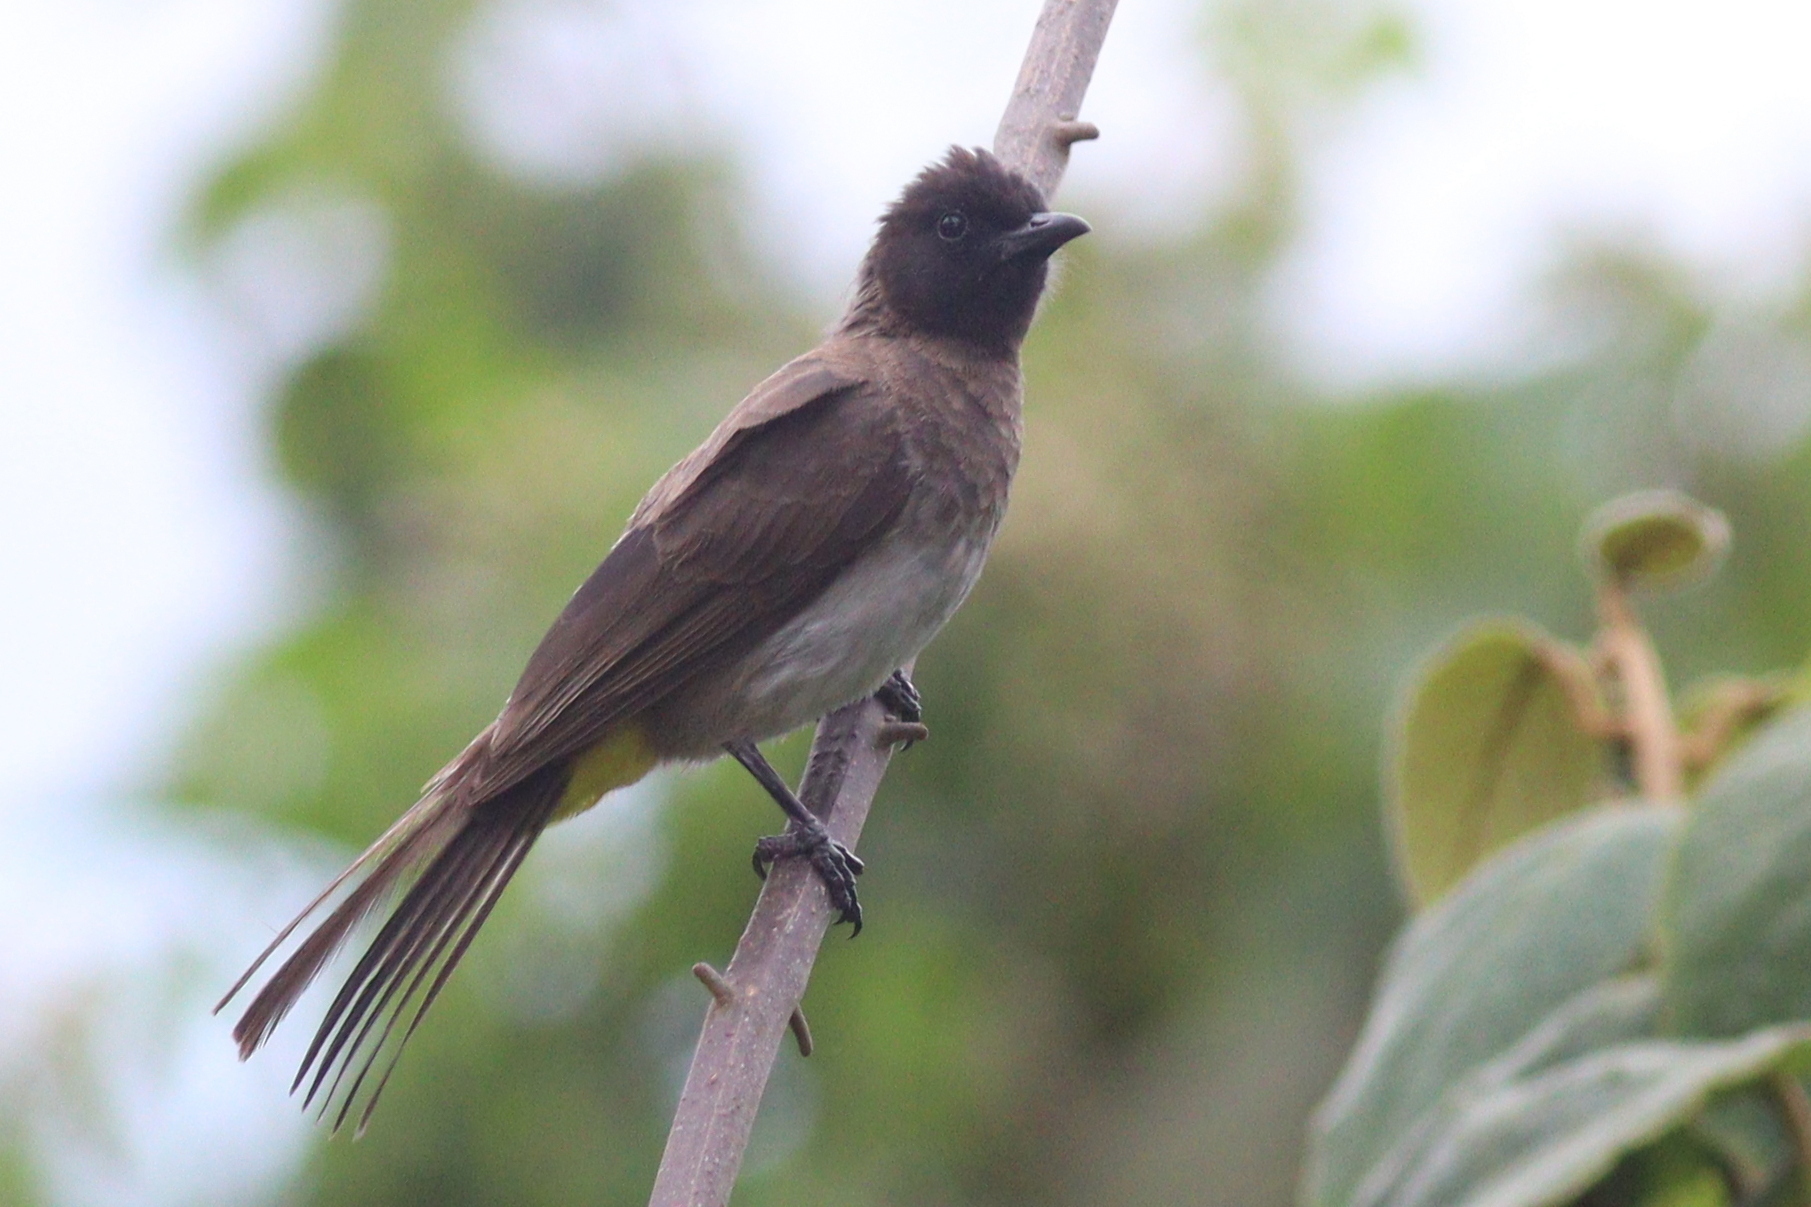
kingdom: Animalia
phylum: Chordata
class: Aves
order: Passeriformes
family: Pycnonotidae
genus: Pycnonotus
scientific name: Pycnonotus barbatus
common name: Common bulbul
